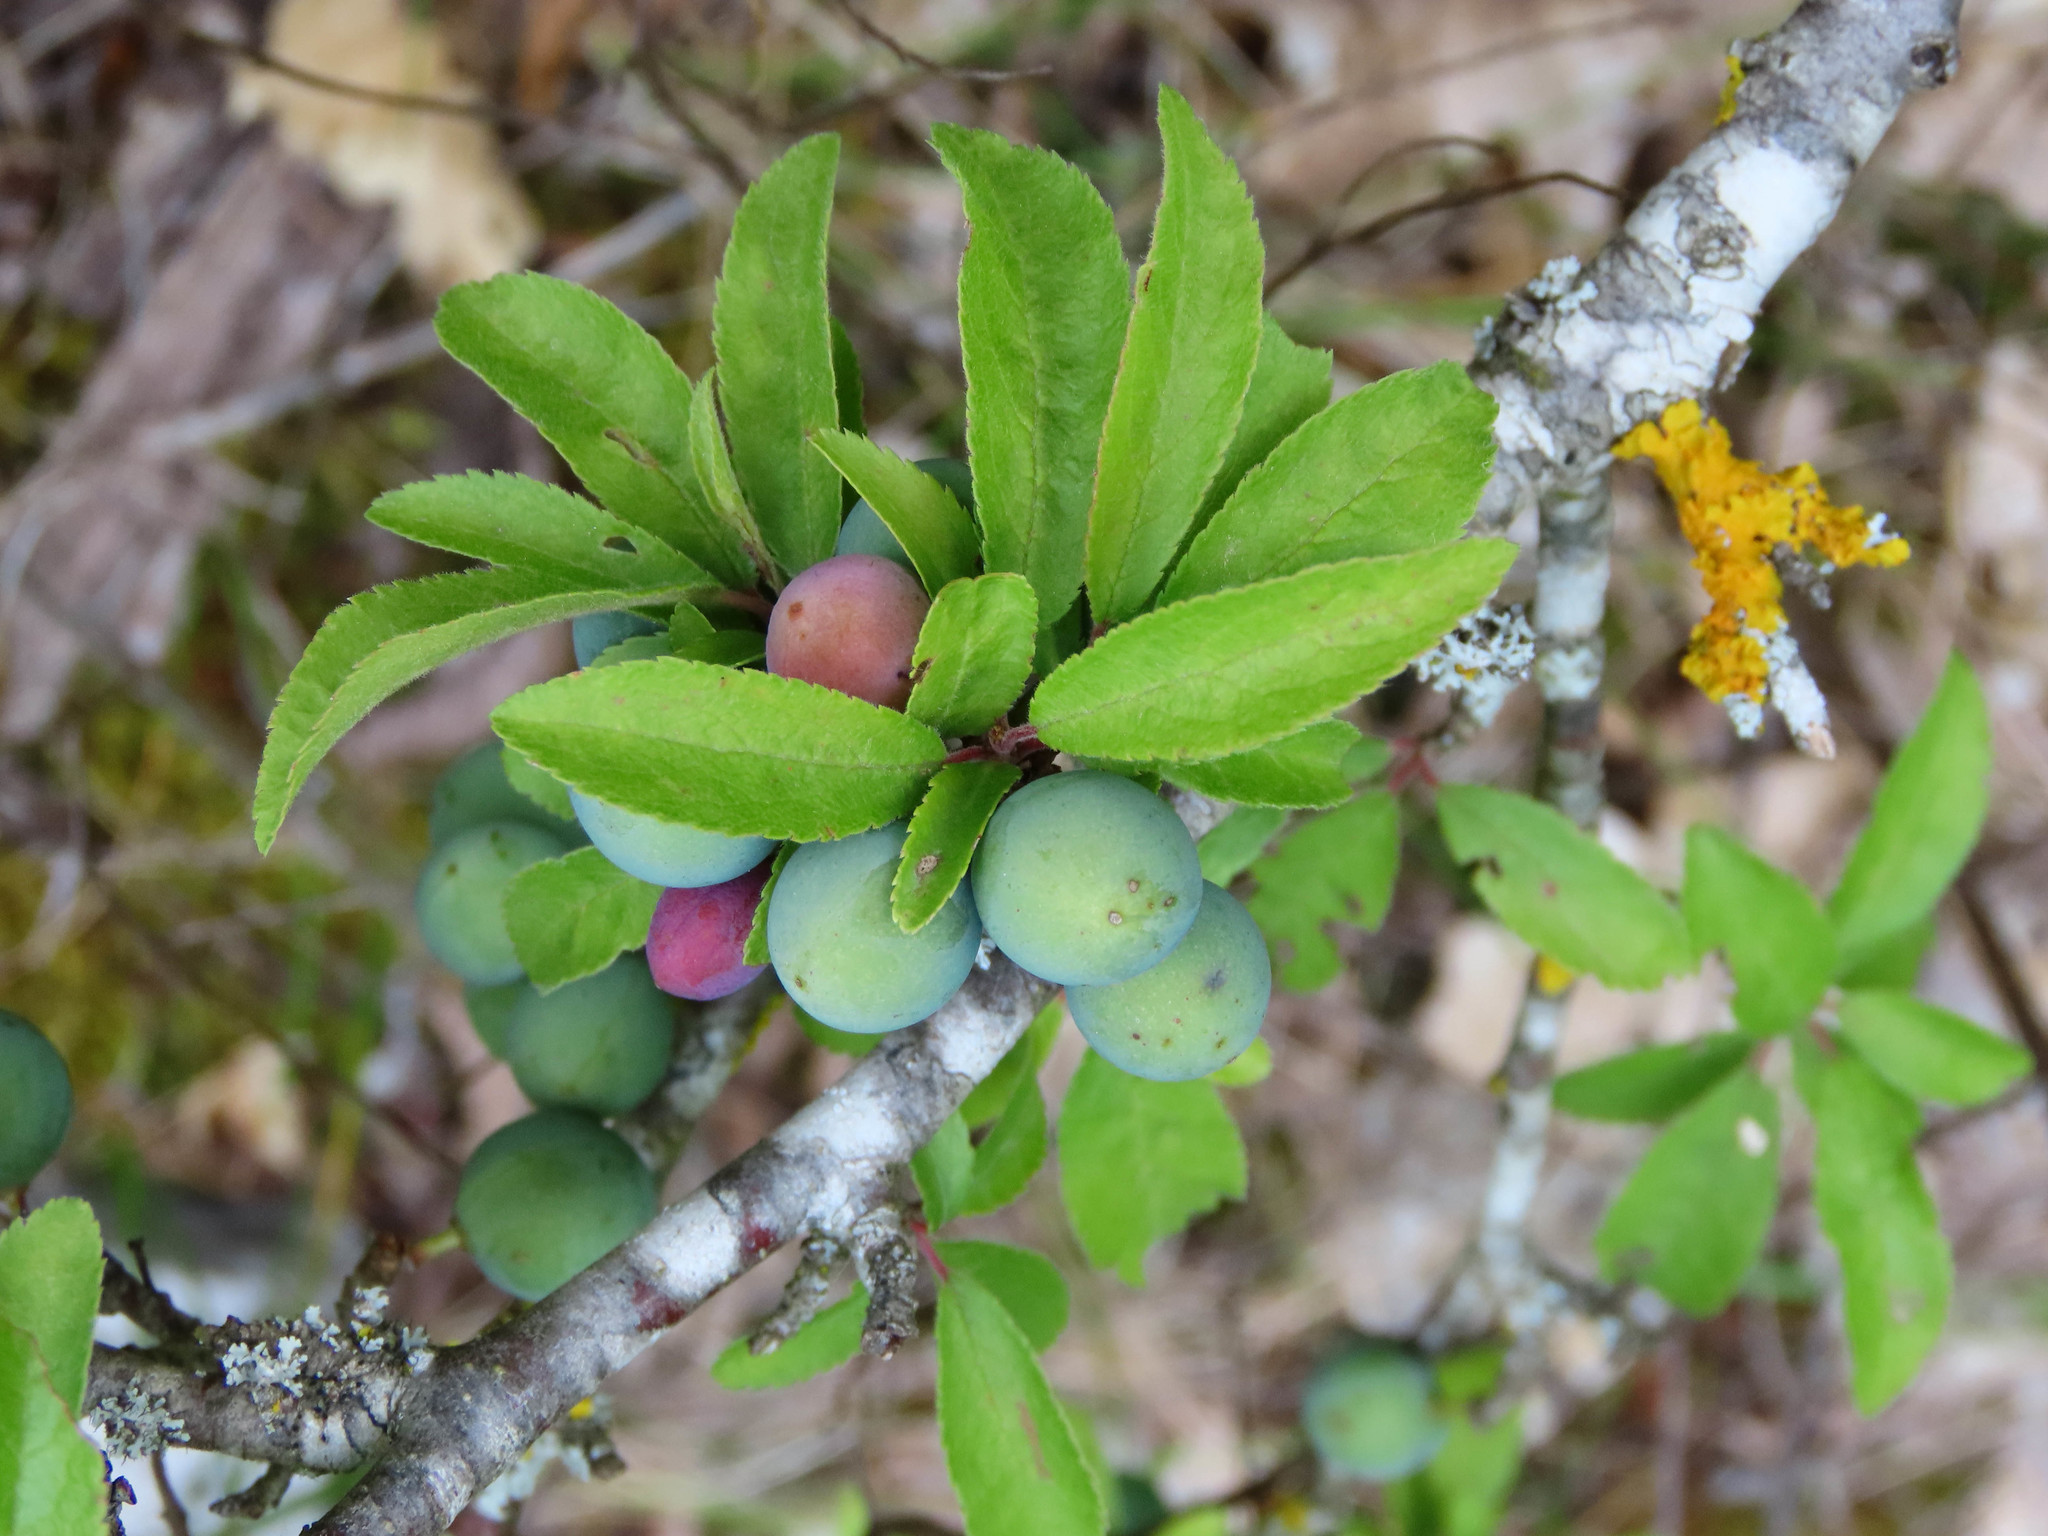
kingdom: Plantae
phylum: Tracheophyta
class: Magnoliopsida
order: Rosales
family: Rosaceae
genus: Prunus
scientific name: Prunus spinosa
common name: Blackthorn
